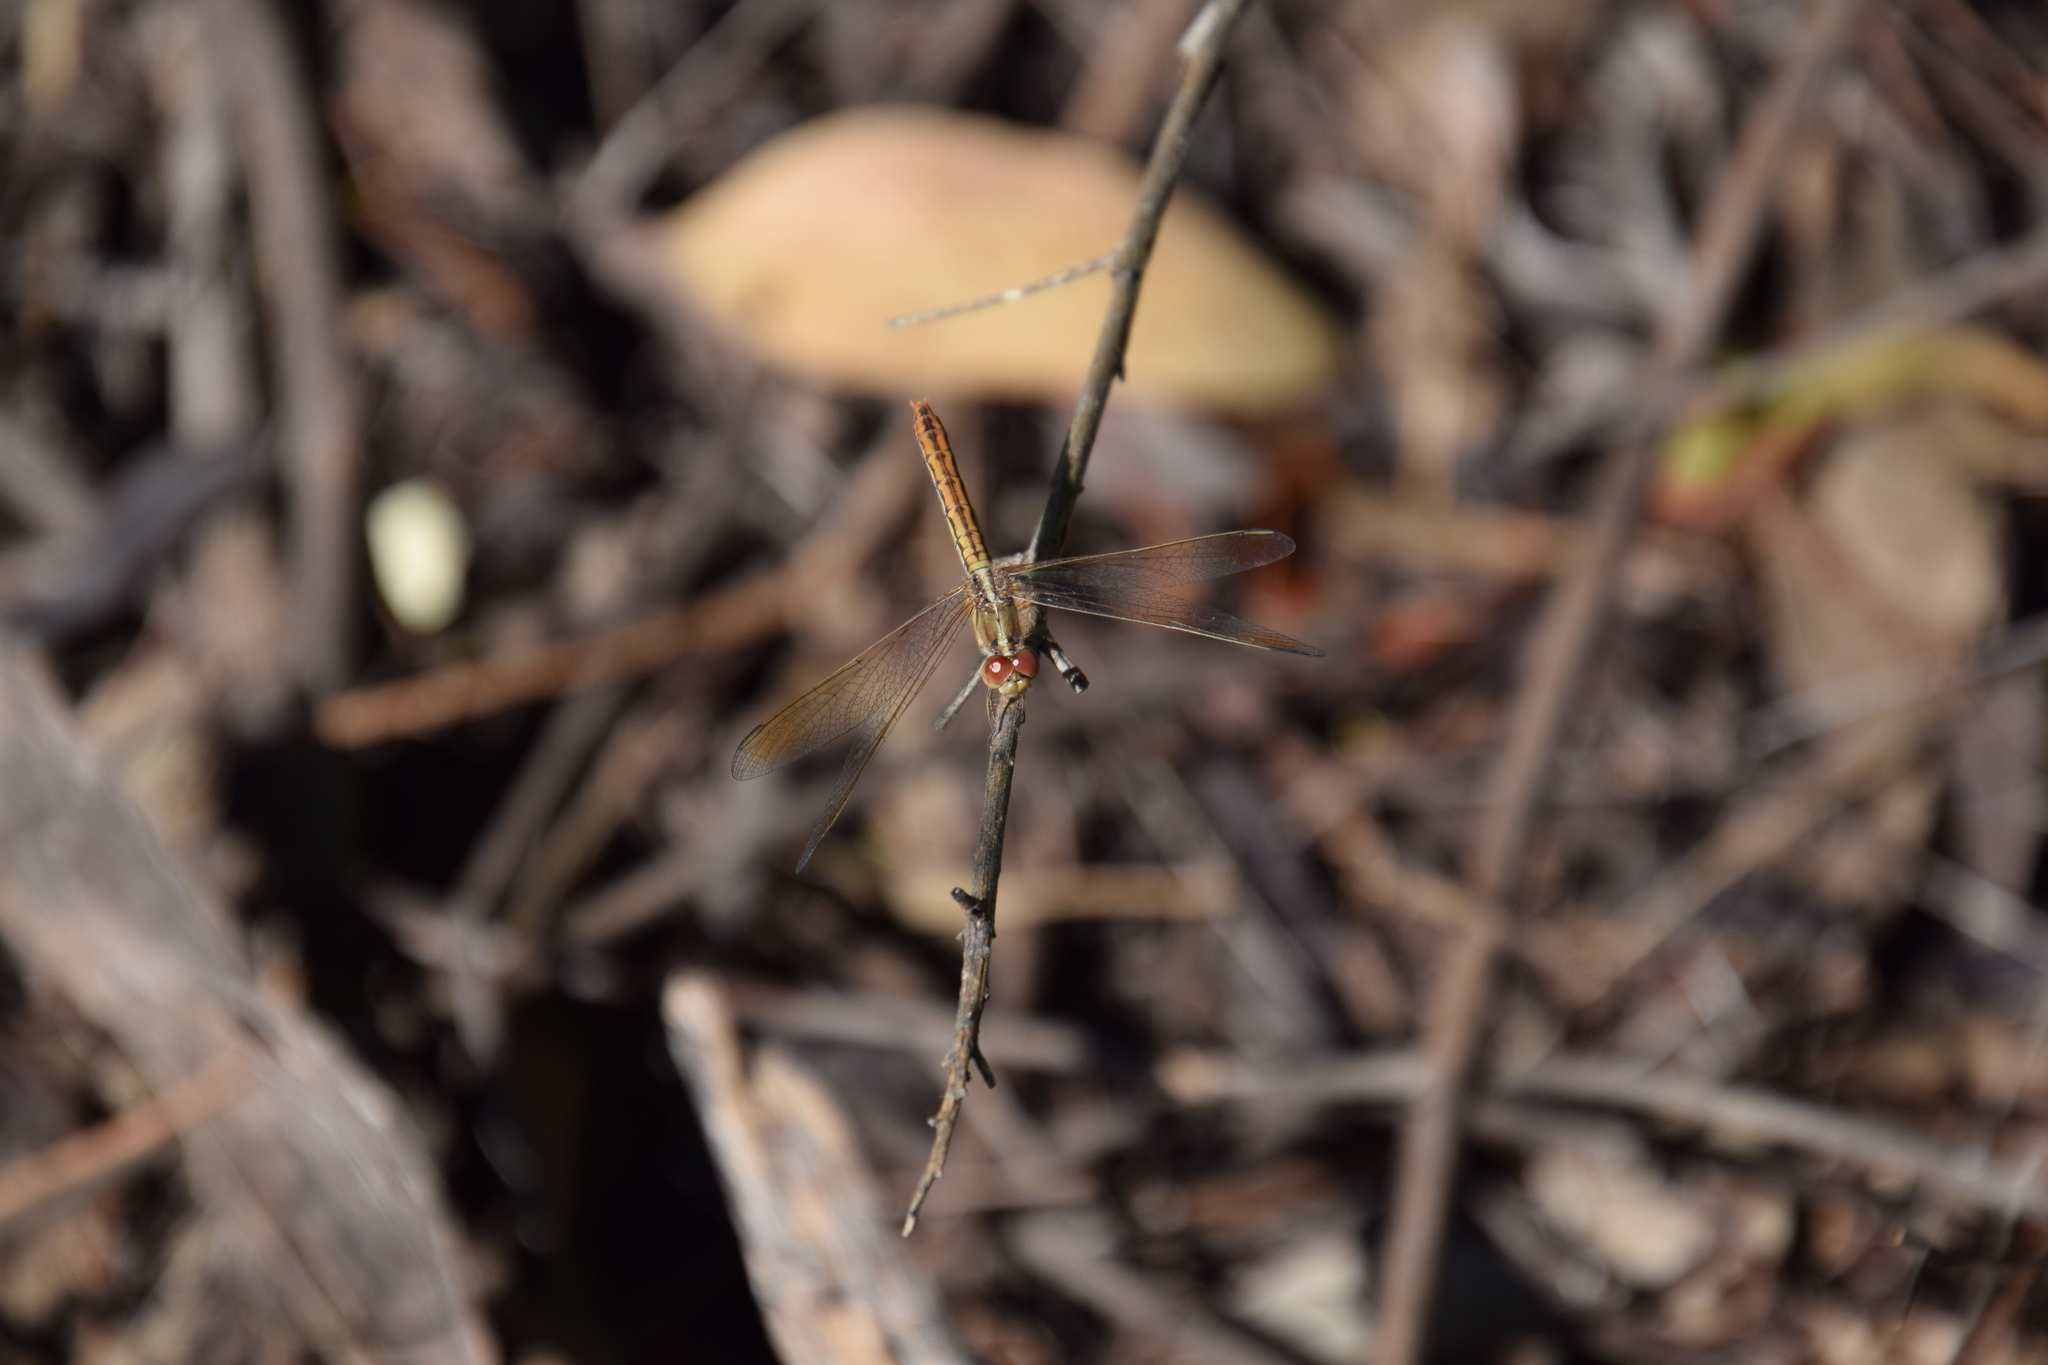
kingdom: Animalia
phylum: Arthropoda
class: Insecta
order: Odonata
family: Libellulidae
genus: Diplacodes
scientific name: Diplacodes haematodes
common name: Scarlet percher
